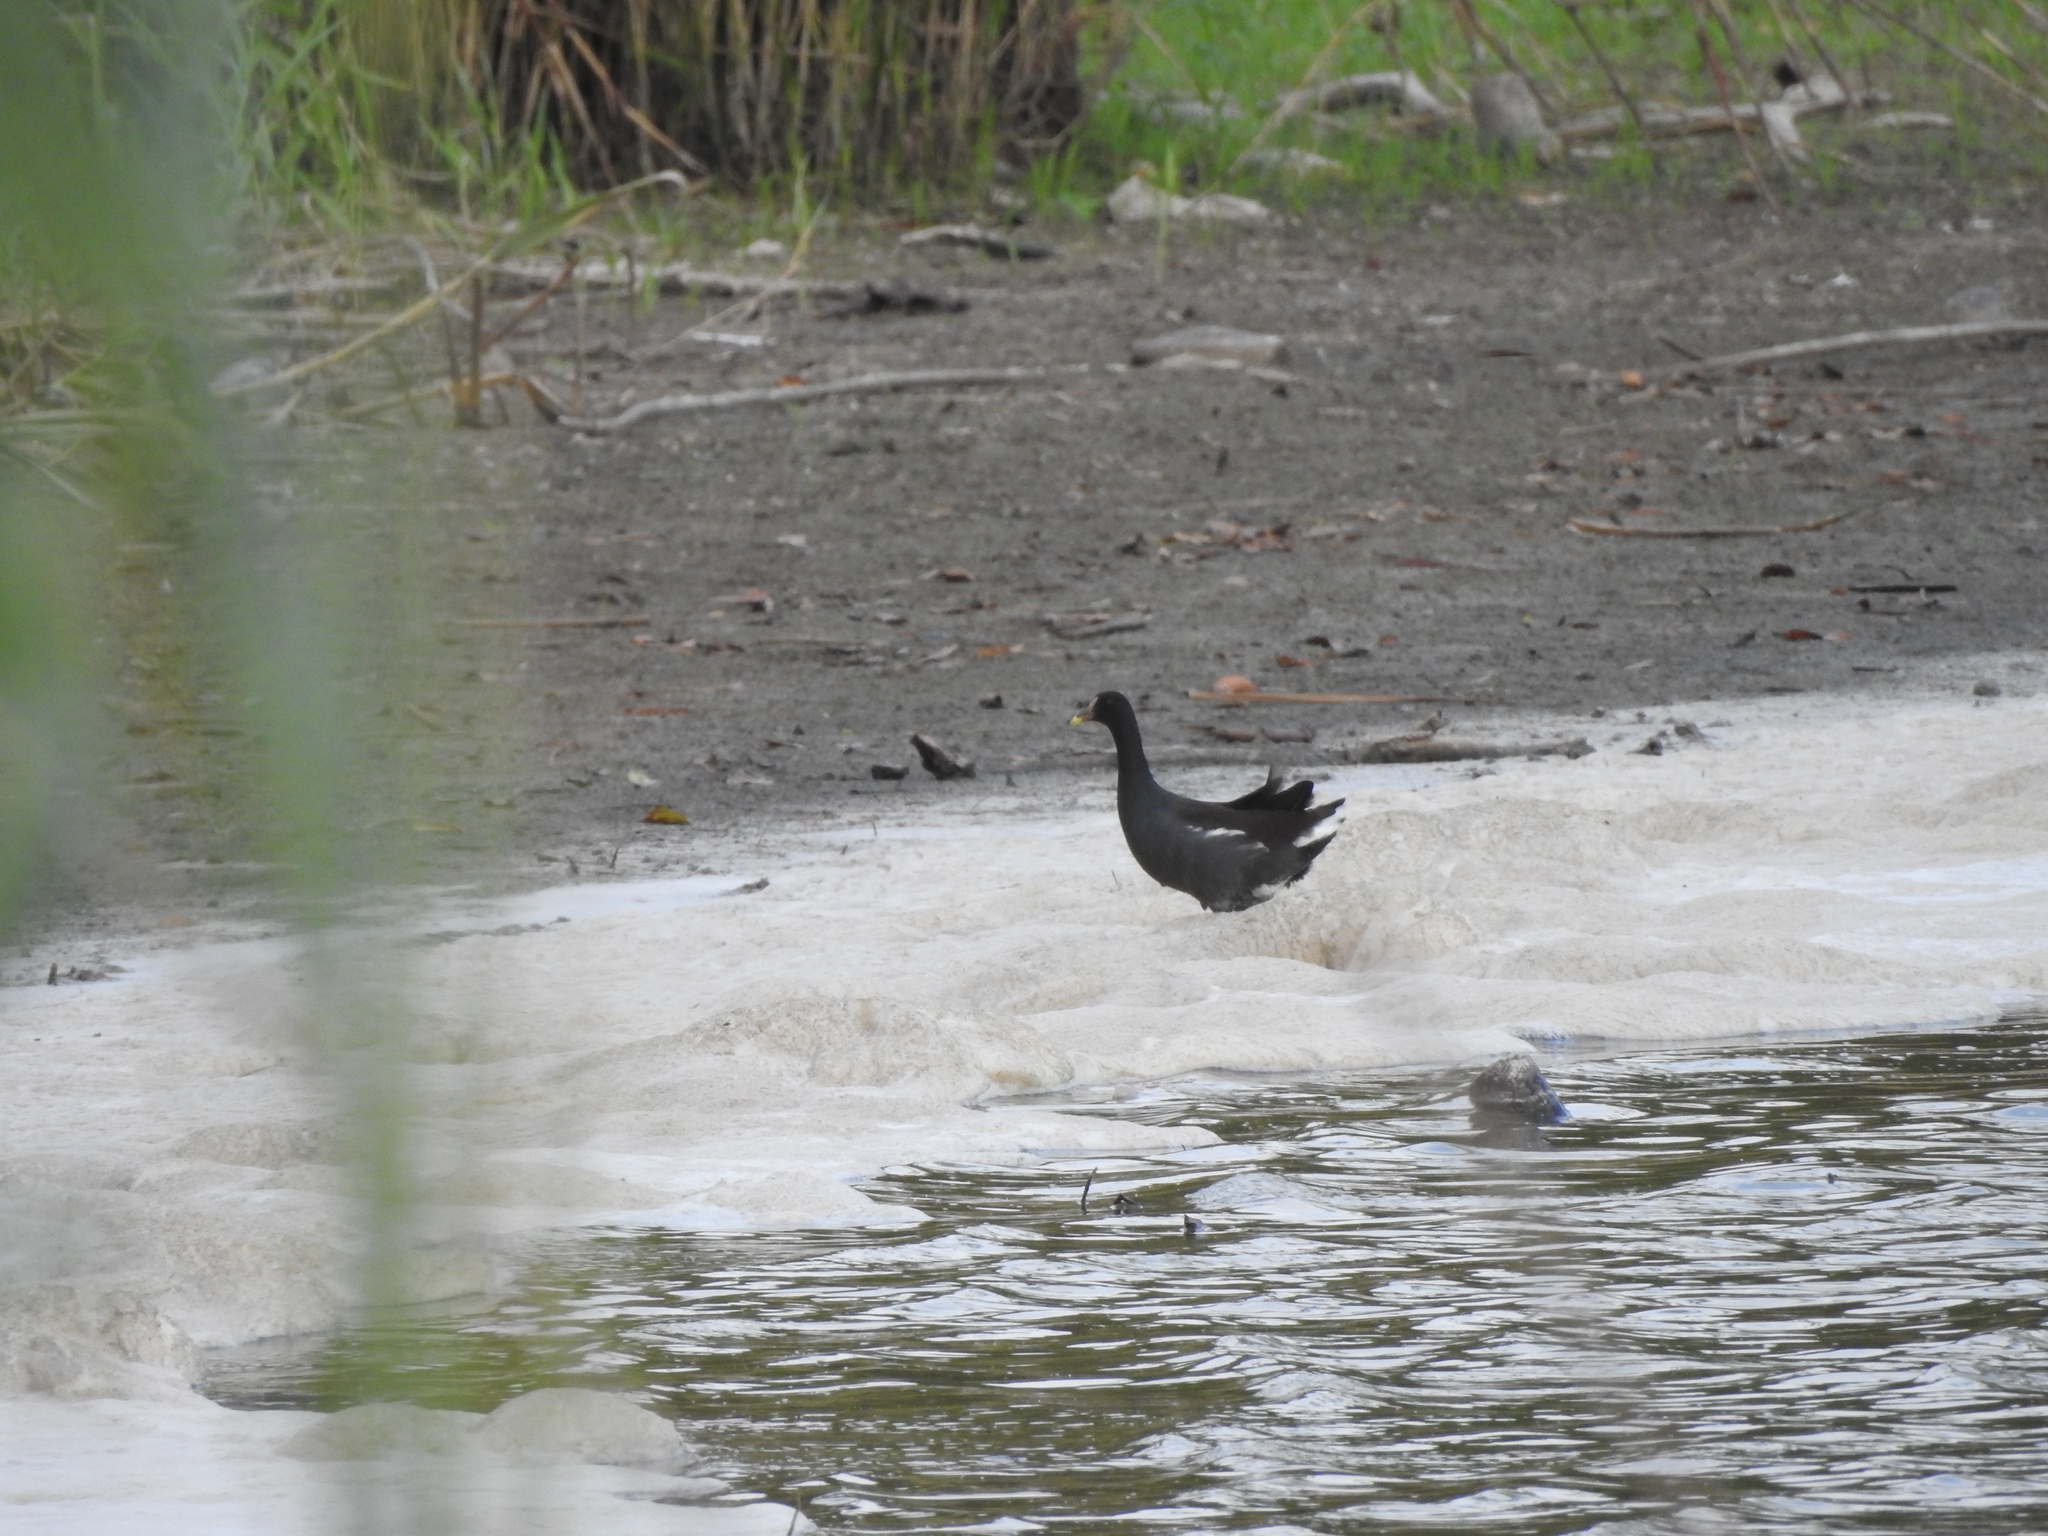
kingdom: Animalia
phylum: Chordata
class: Aves
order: Gruiformes
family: Rallidae
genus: Gallinula
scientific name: Gallinula chloropus
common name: Common moorhen
